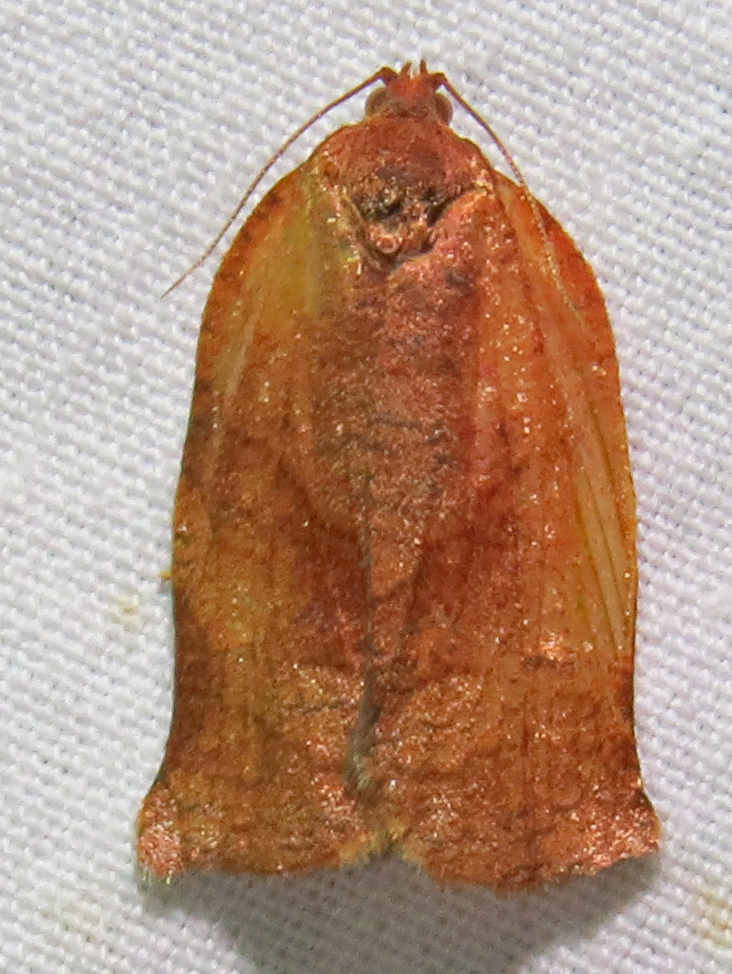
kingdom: Animalia
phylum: Arthropoda
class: Insecta
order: Lepidoptera
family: Tortricidae
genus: Choristoneura
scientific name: Choristoneura rosaceana
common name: Oblique-banded leafroller moth
